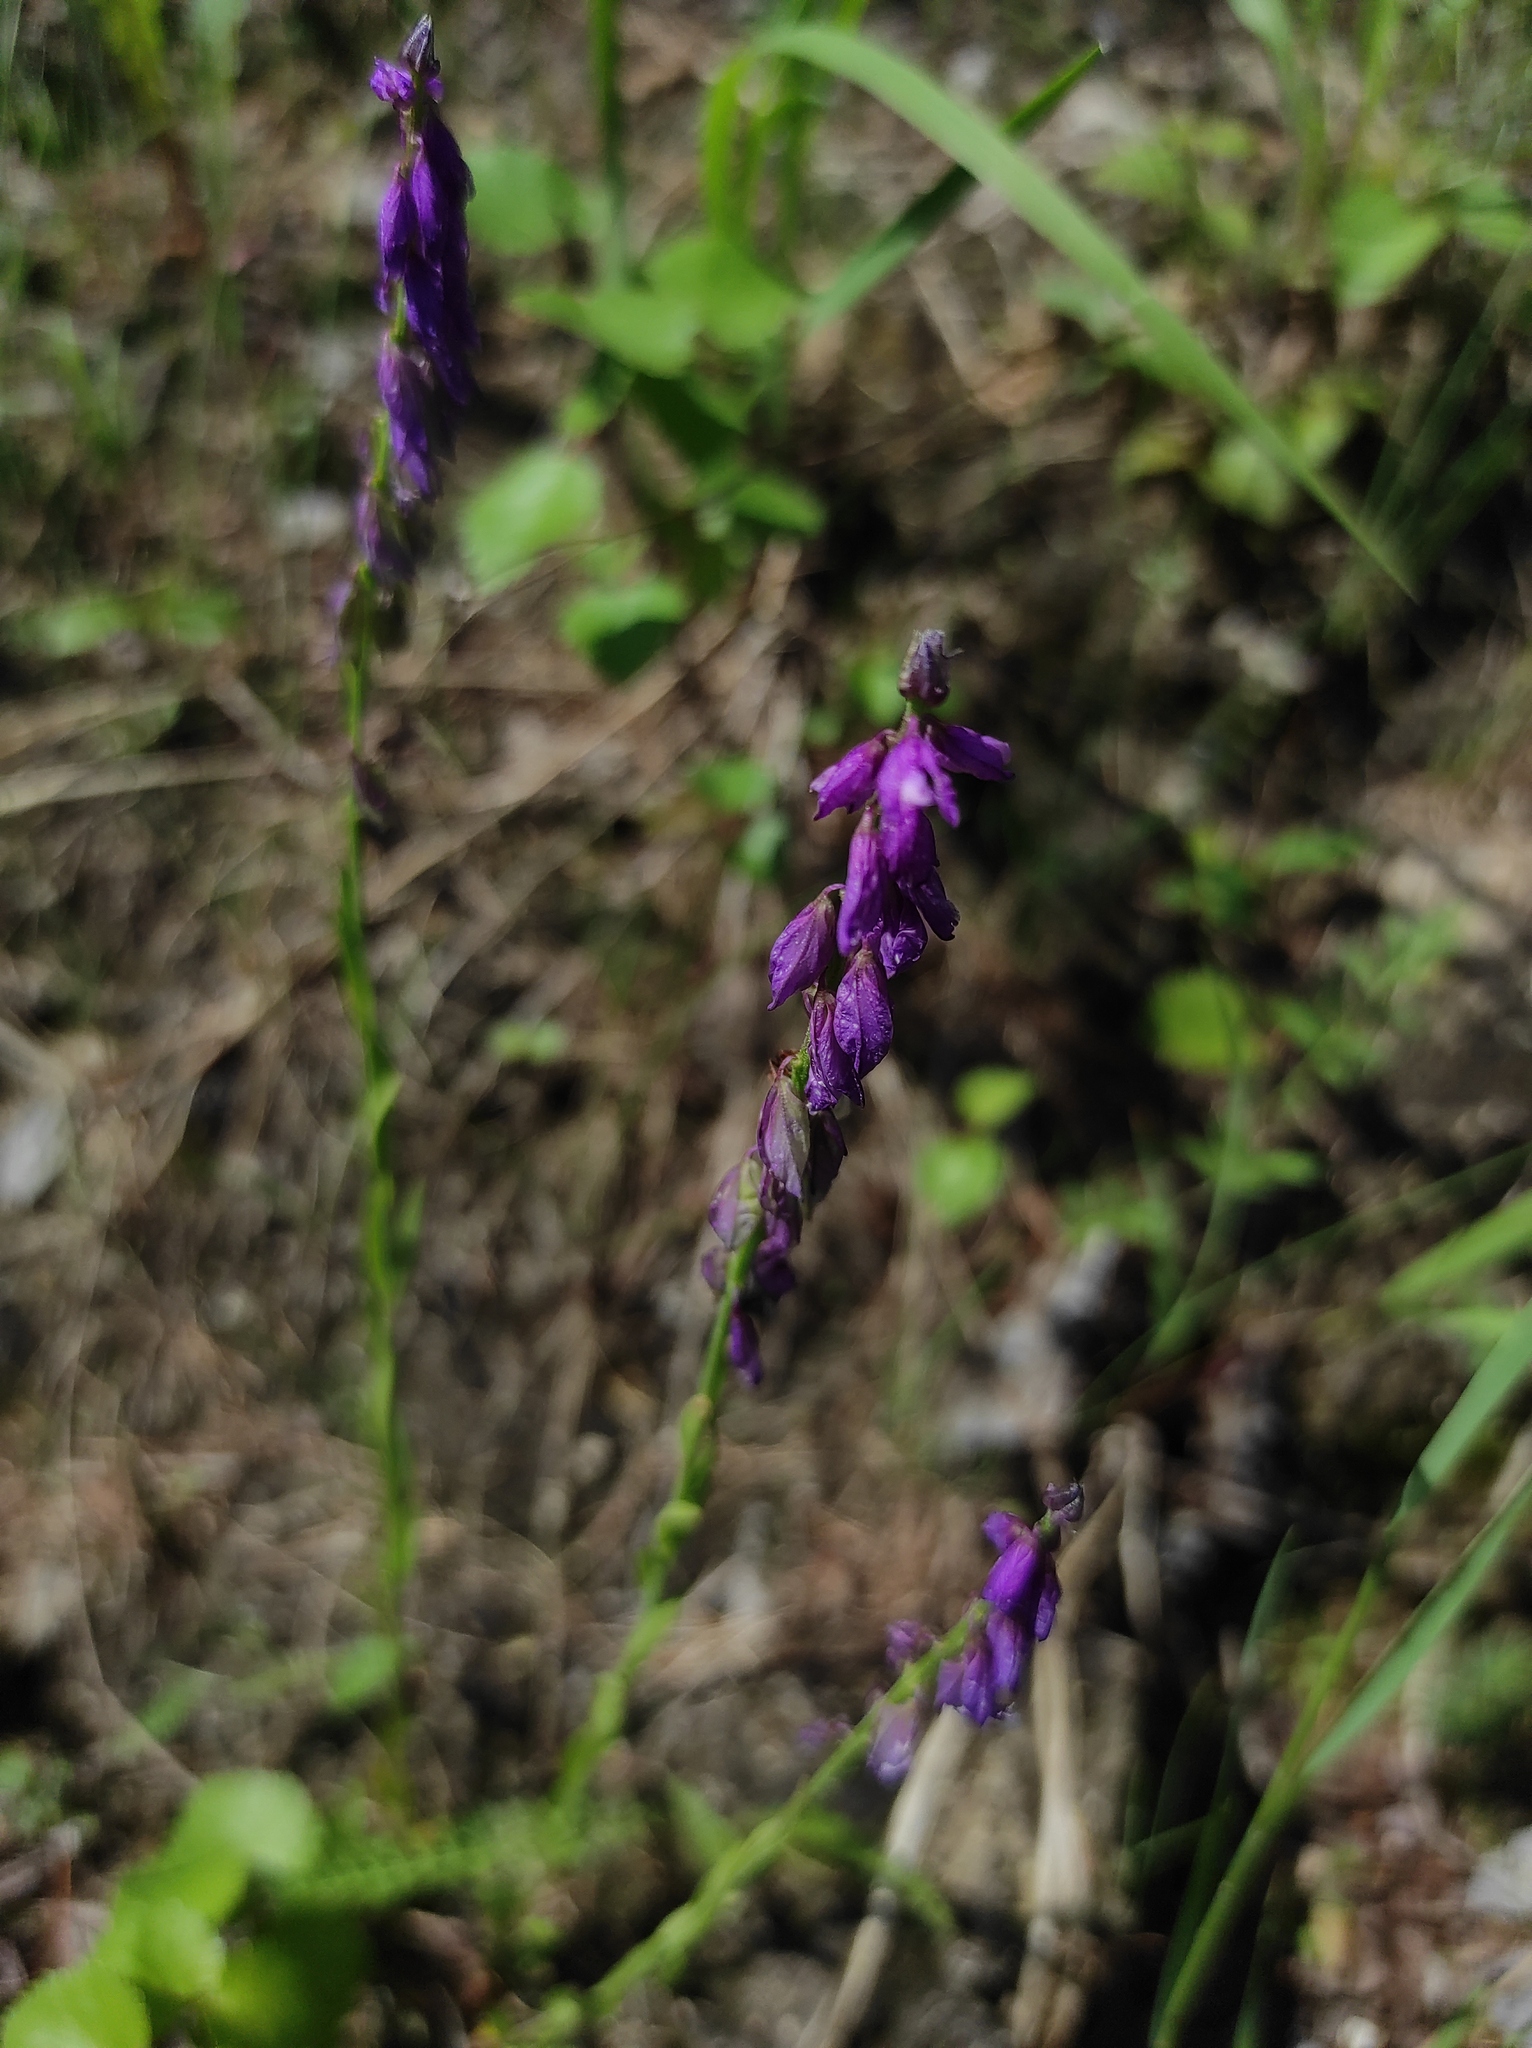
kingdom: Plantae
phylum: Tracheophyta
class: Magnoliopsida
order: Fabales
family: Polygalaceae
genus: Polygala
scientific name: Polygala comosa
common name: Tufted milkwort
